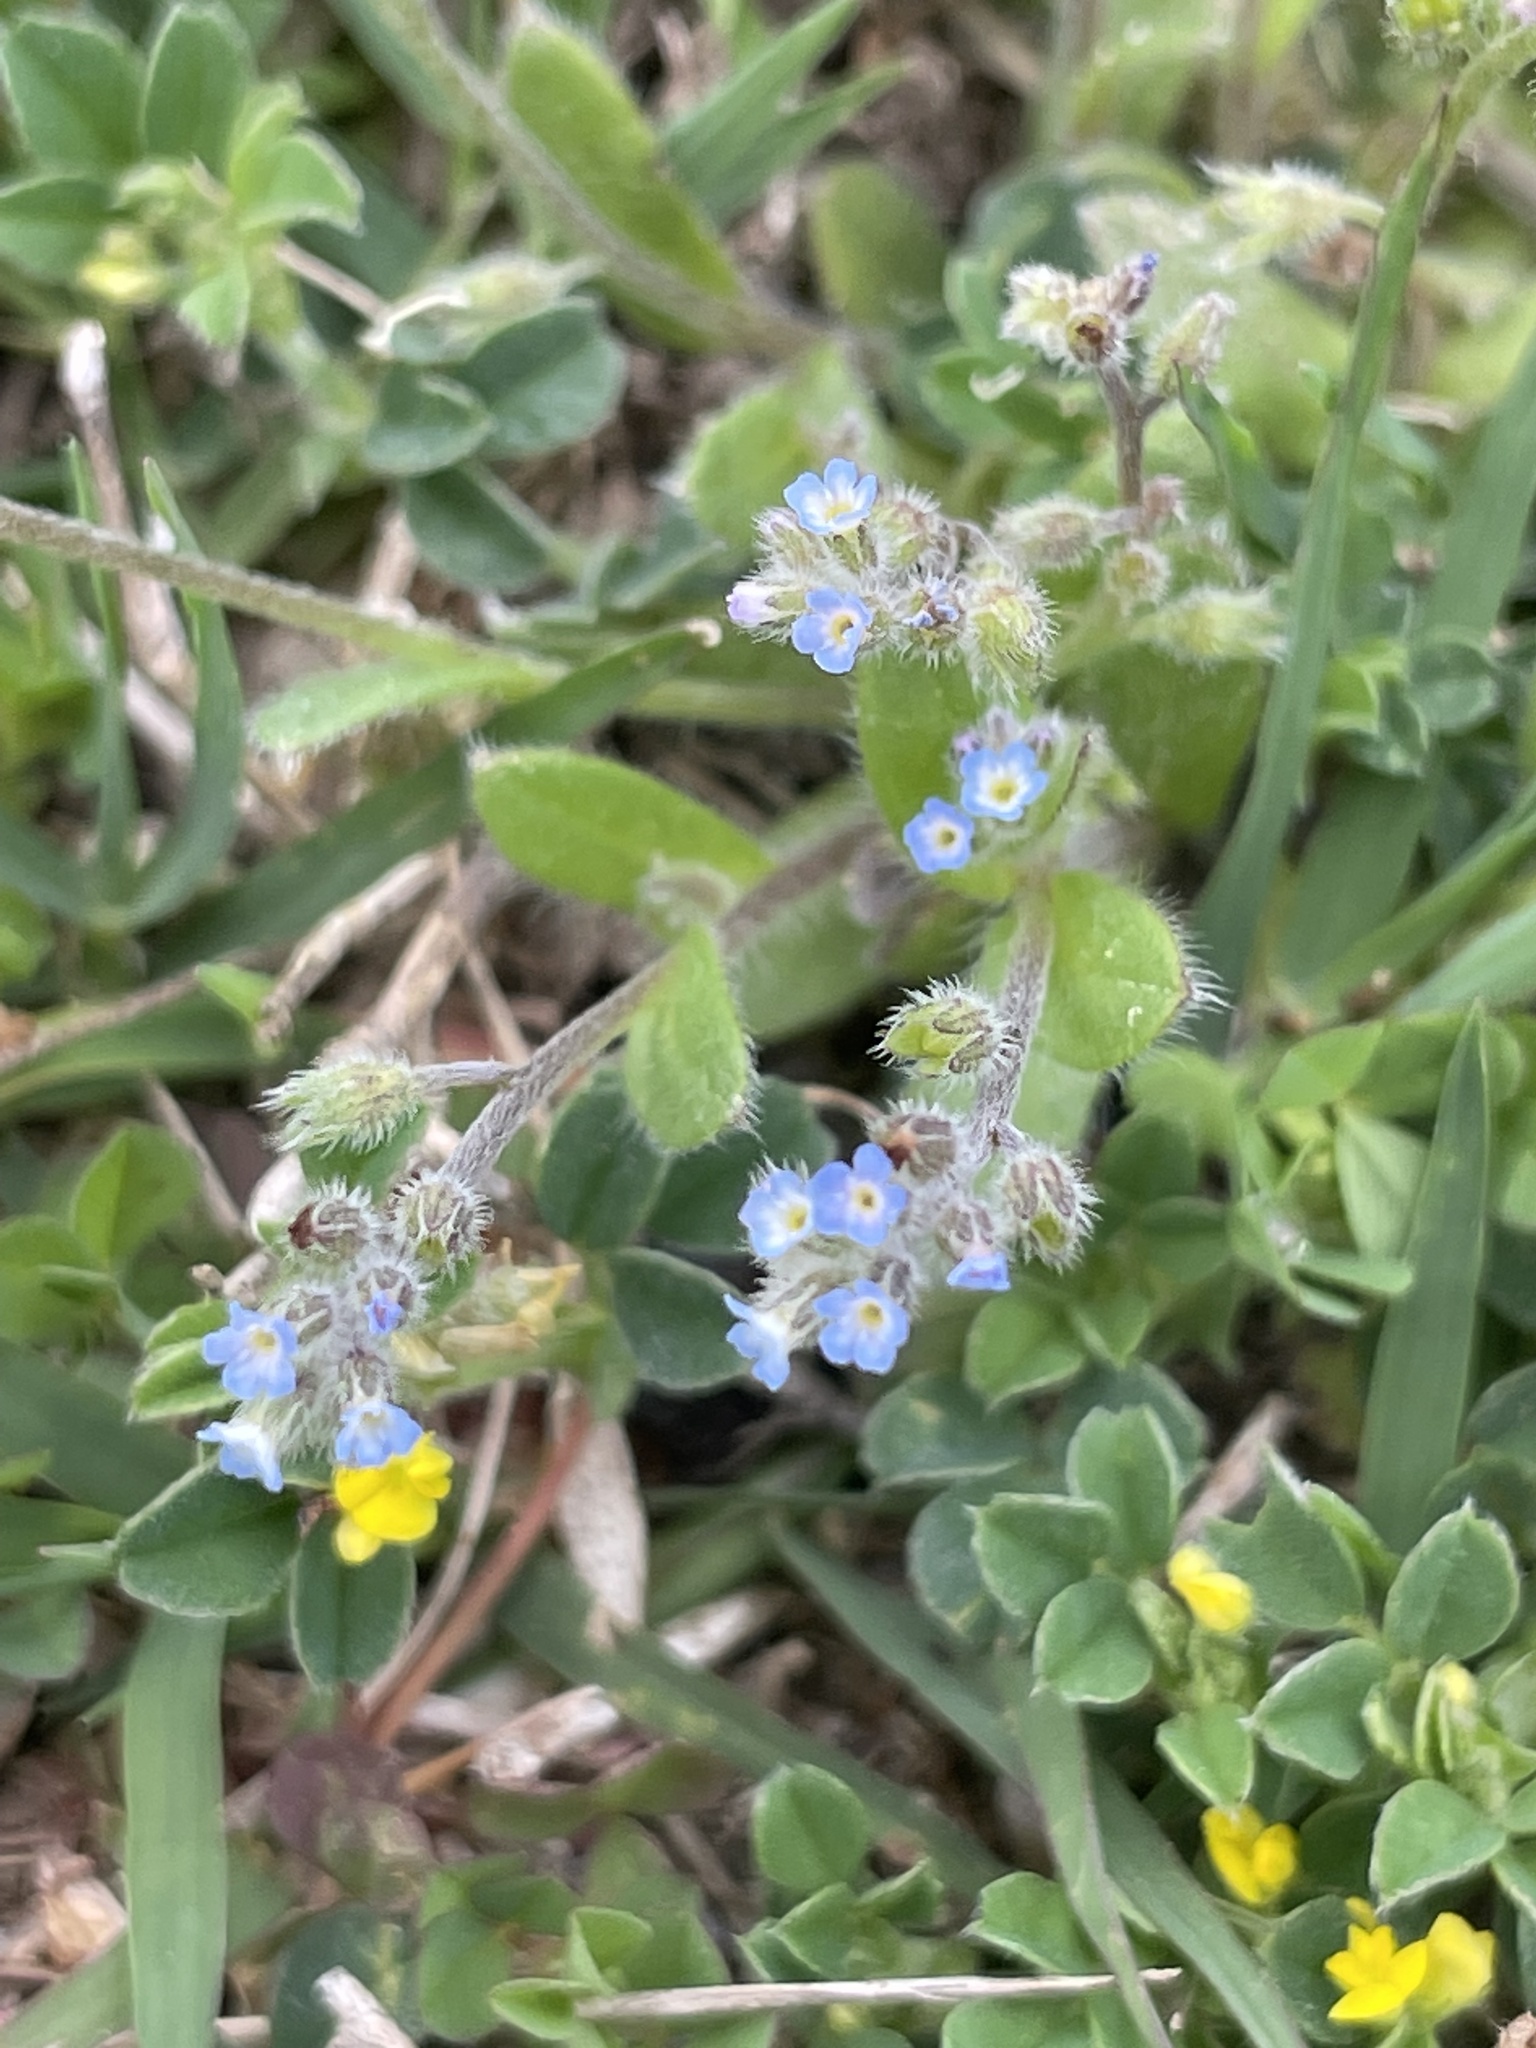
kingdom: Plantae
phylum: Tracheophyta
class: Magnoliopsida
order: Boraginales
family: Boraginaceae
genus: Myosotis
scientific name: Myosotis ramosissima
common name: Early forget-me-not
